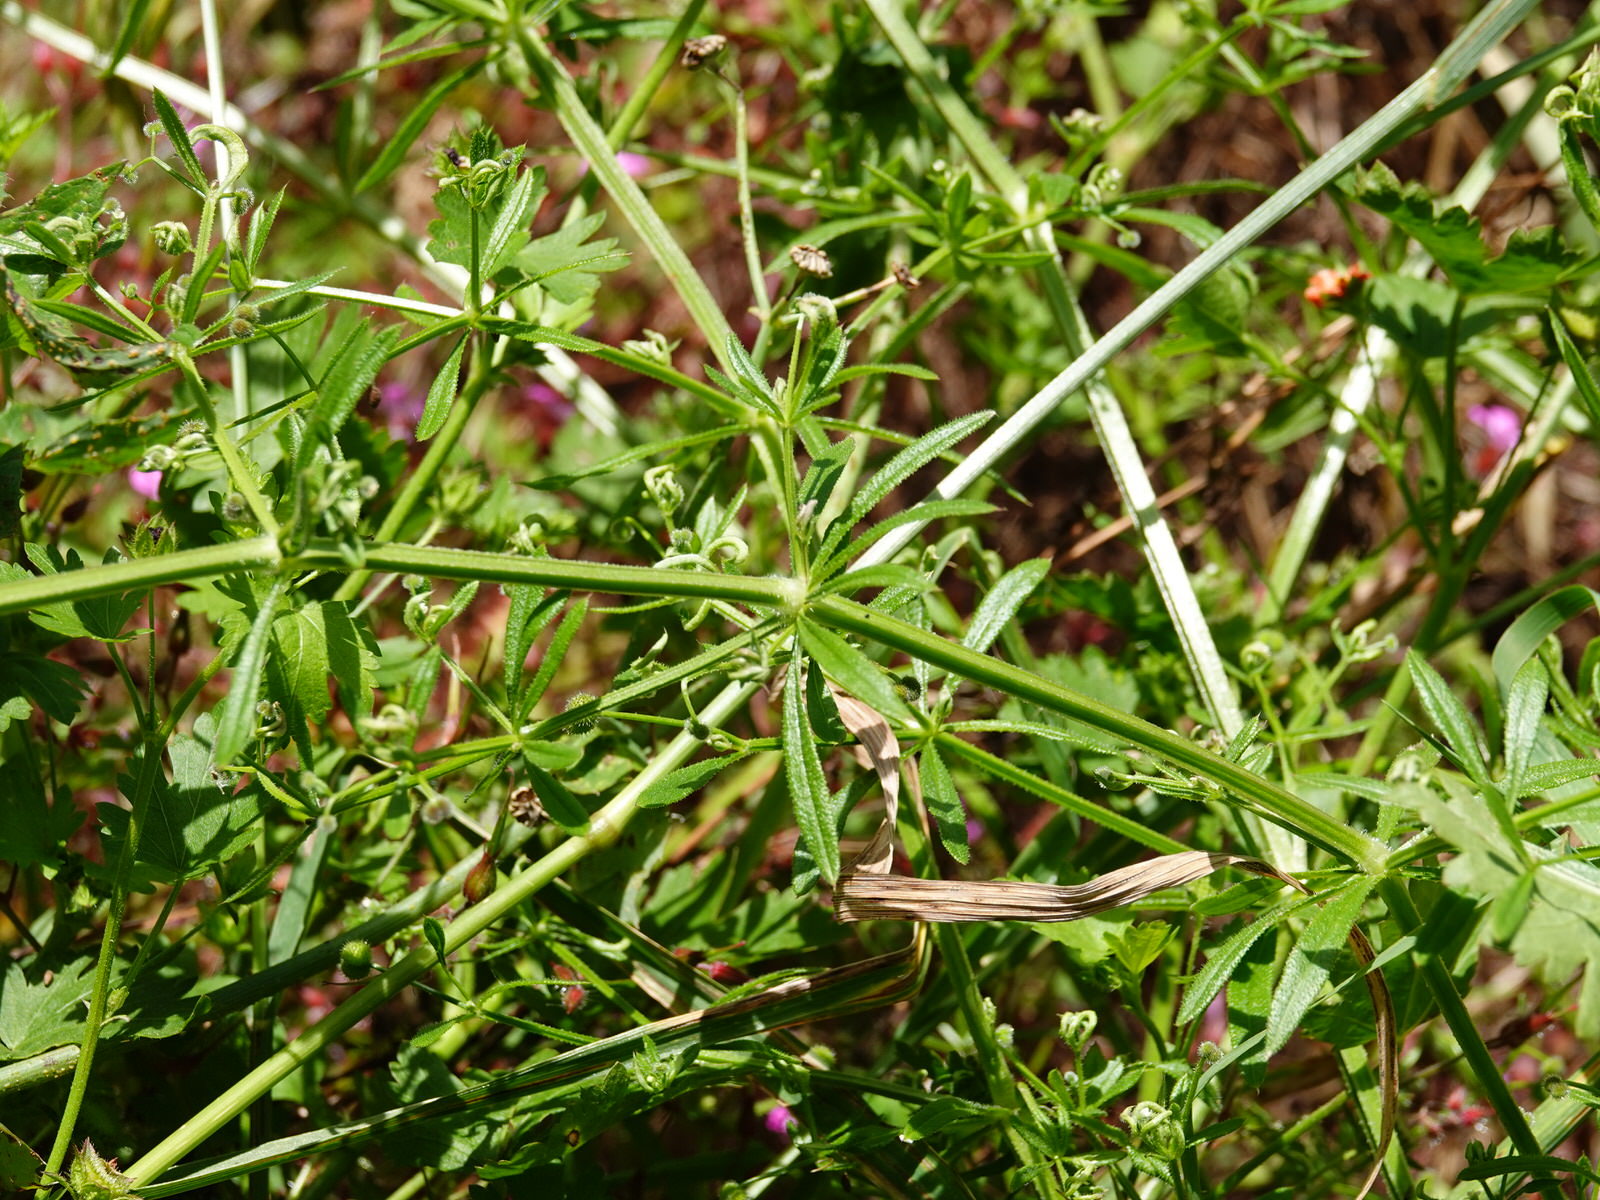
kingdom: Plantae
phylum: Tracheophyta
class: Magnoliopsida
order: Gentianales
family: Rubiaceae
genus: Galium
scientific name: Galium aparine
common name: Cleavers
